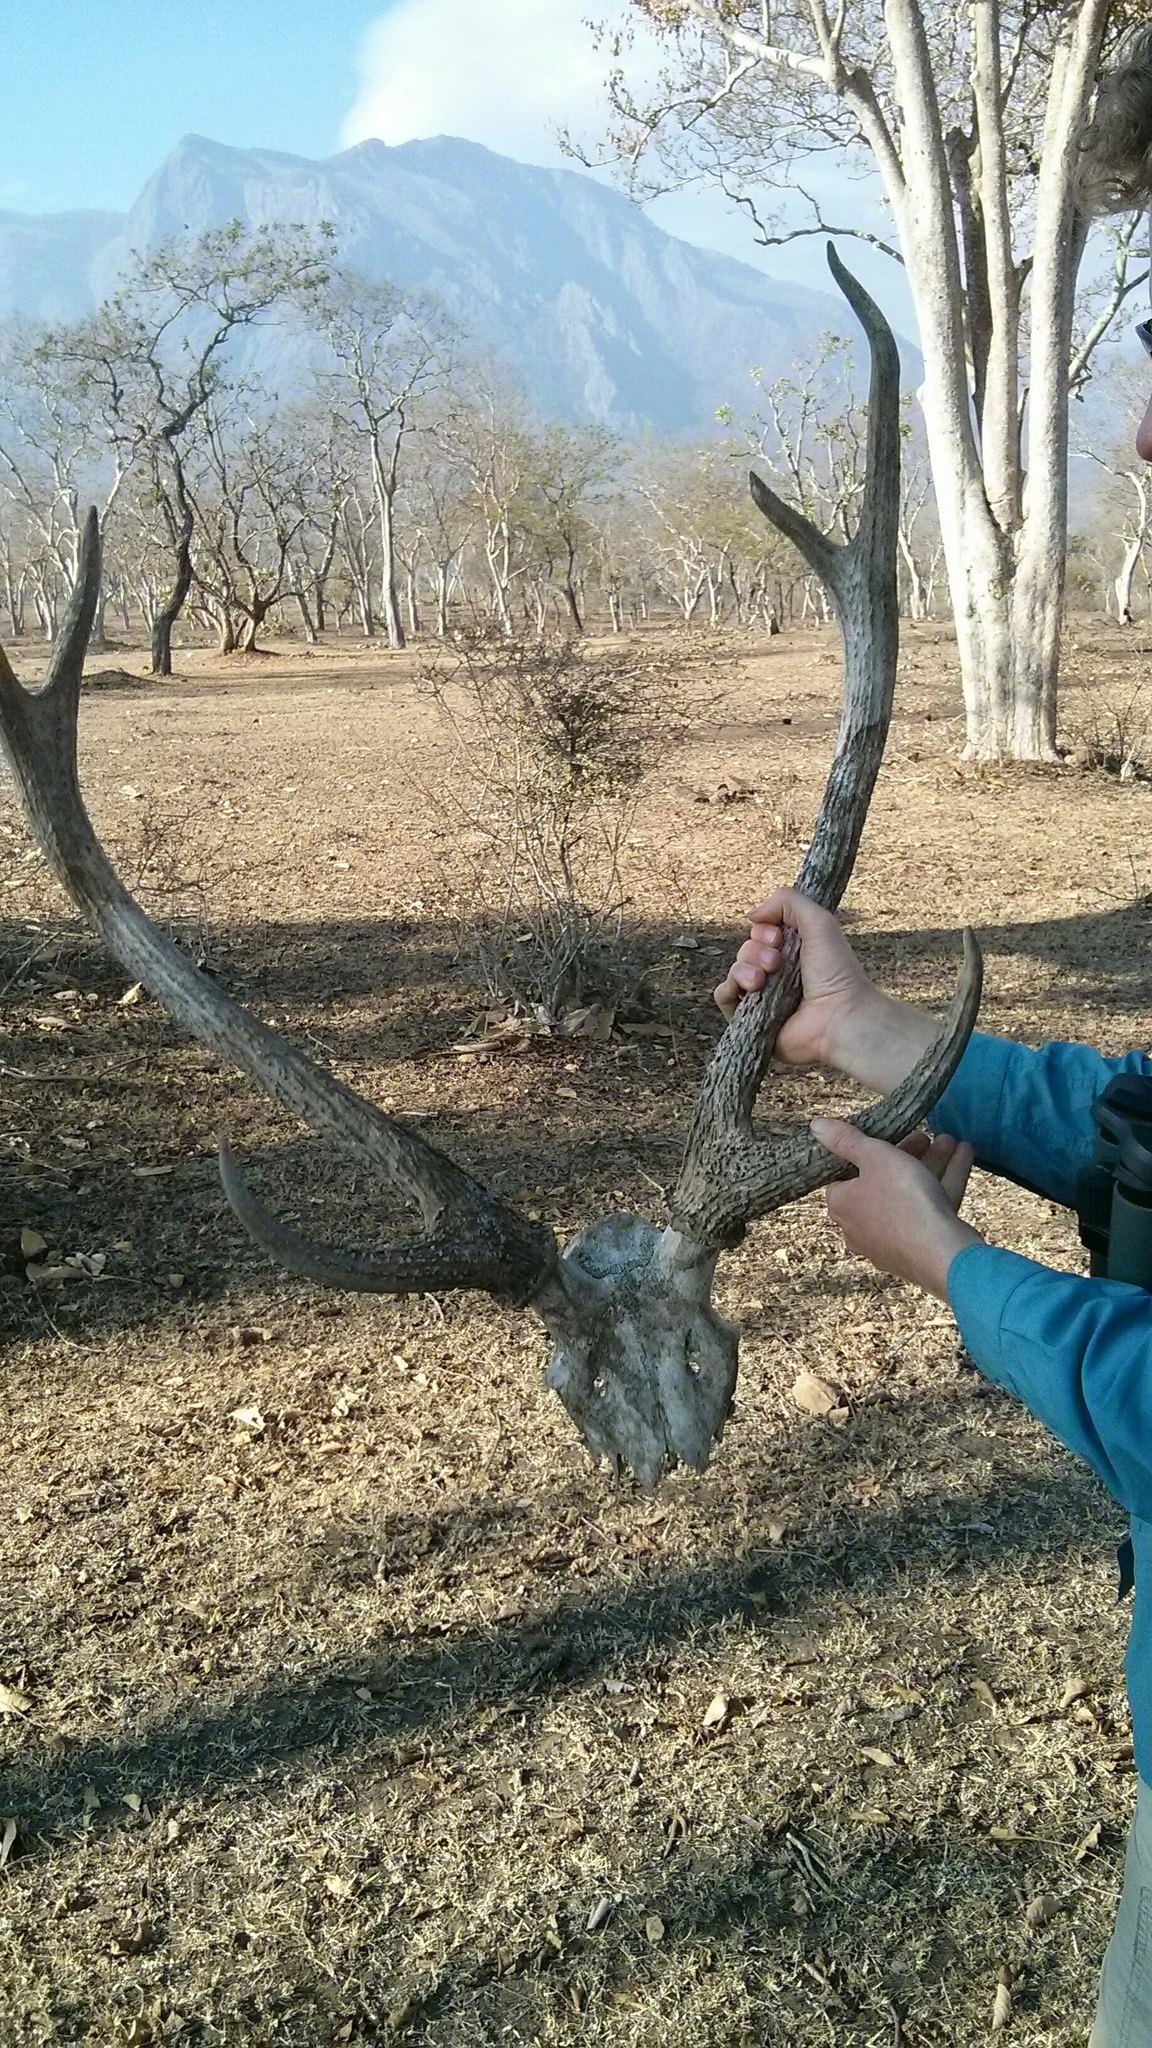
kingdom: Animalia
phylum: Chordata
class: Mammalia
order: Artiodactyla
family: Cervidae
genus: Rusa
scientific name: Rusa unicolor
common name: Sambar
